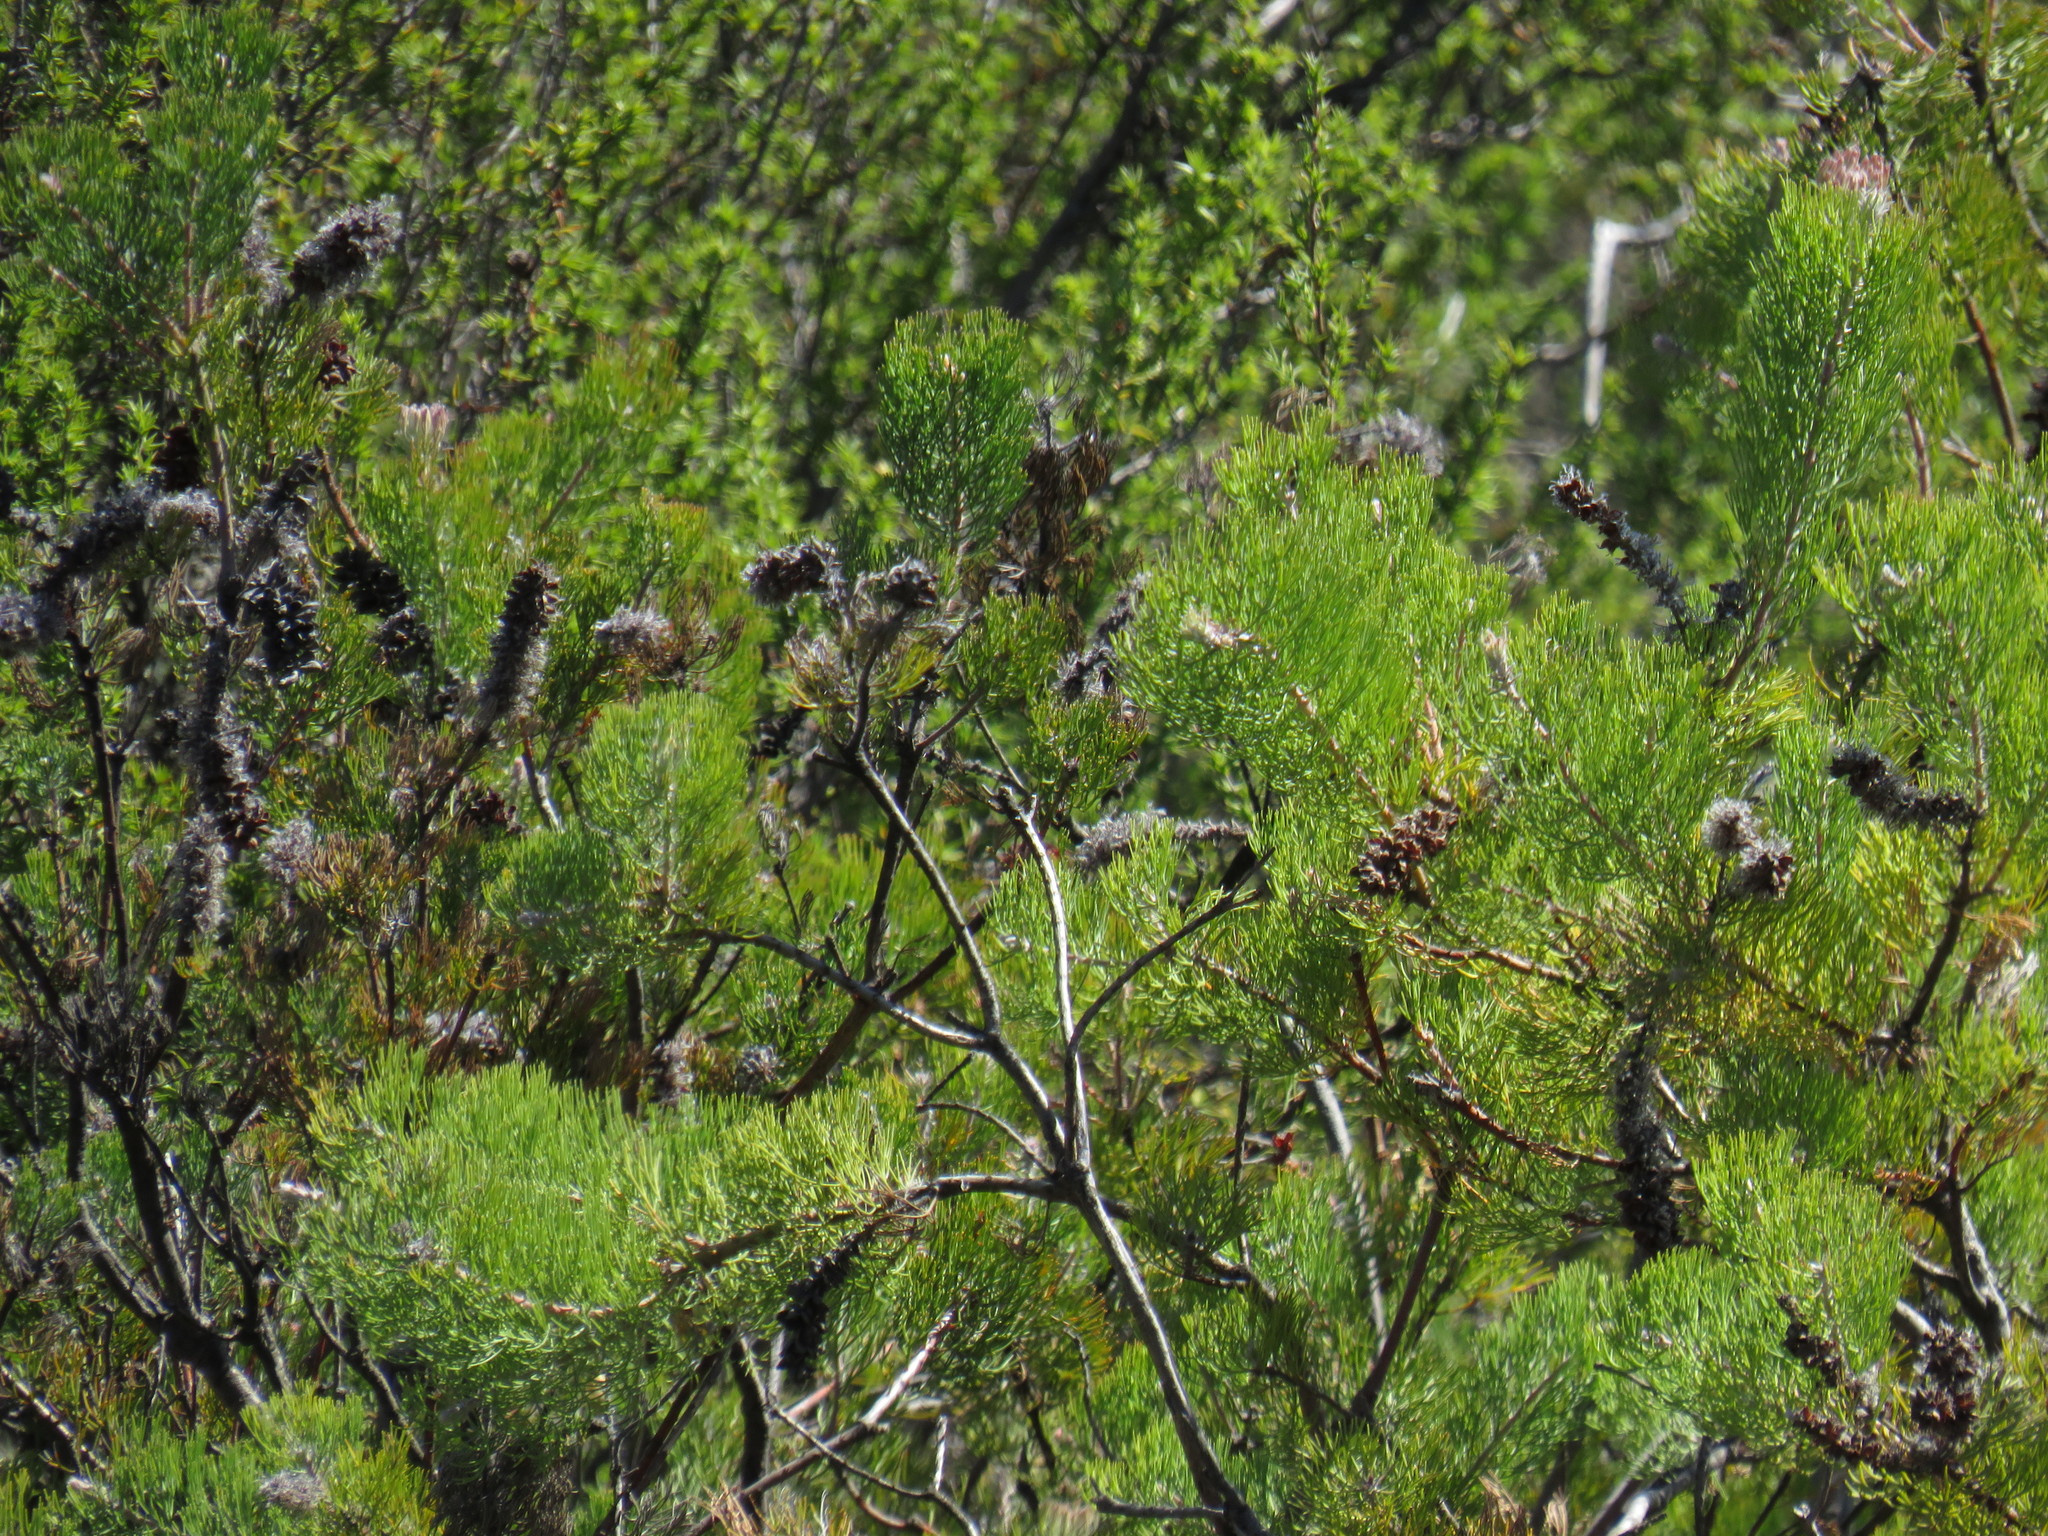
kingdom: Plantae
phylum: Tracheophyta
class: Magnoliopsida
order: Proteales
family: Proteaceae
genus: Paranomus
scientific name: Paranomus lagopus
